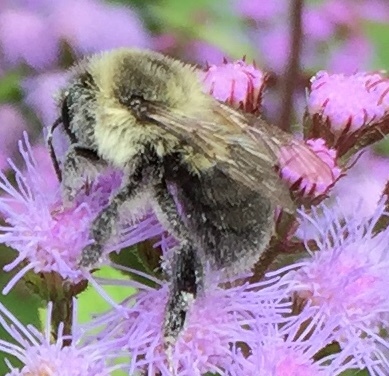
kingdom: Animalia
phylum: Arthropoda
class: Insecta
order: Hymenoptera
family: Apidae
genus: Bombus
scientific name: Bombus impatiens
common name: Common eastern bumble bee
